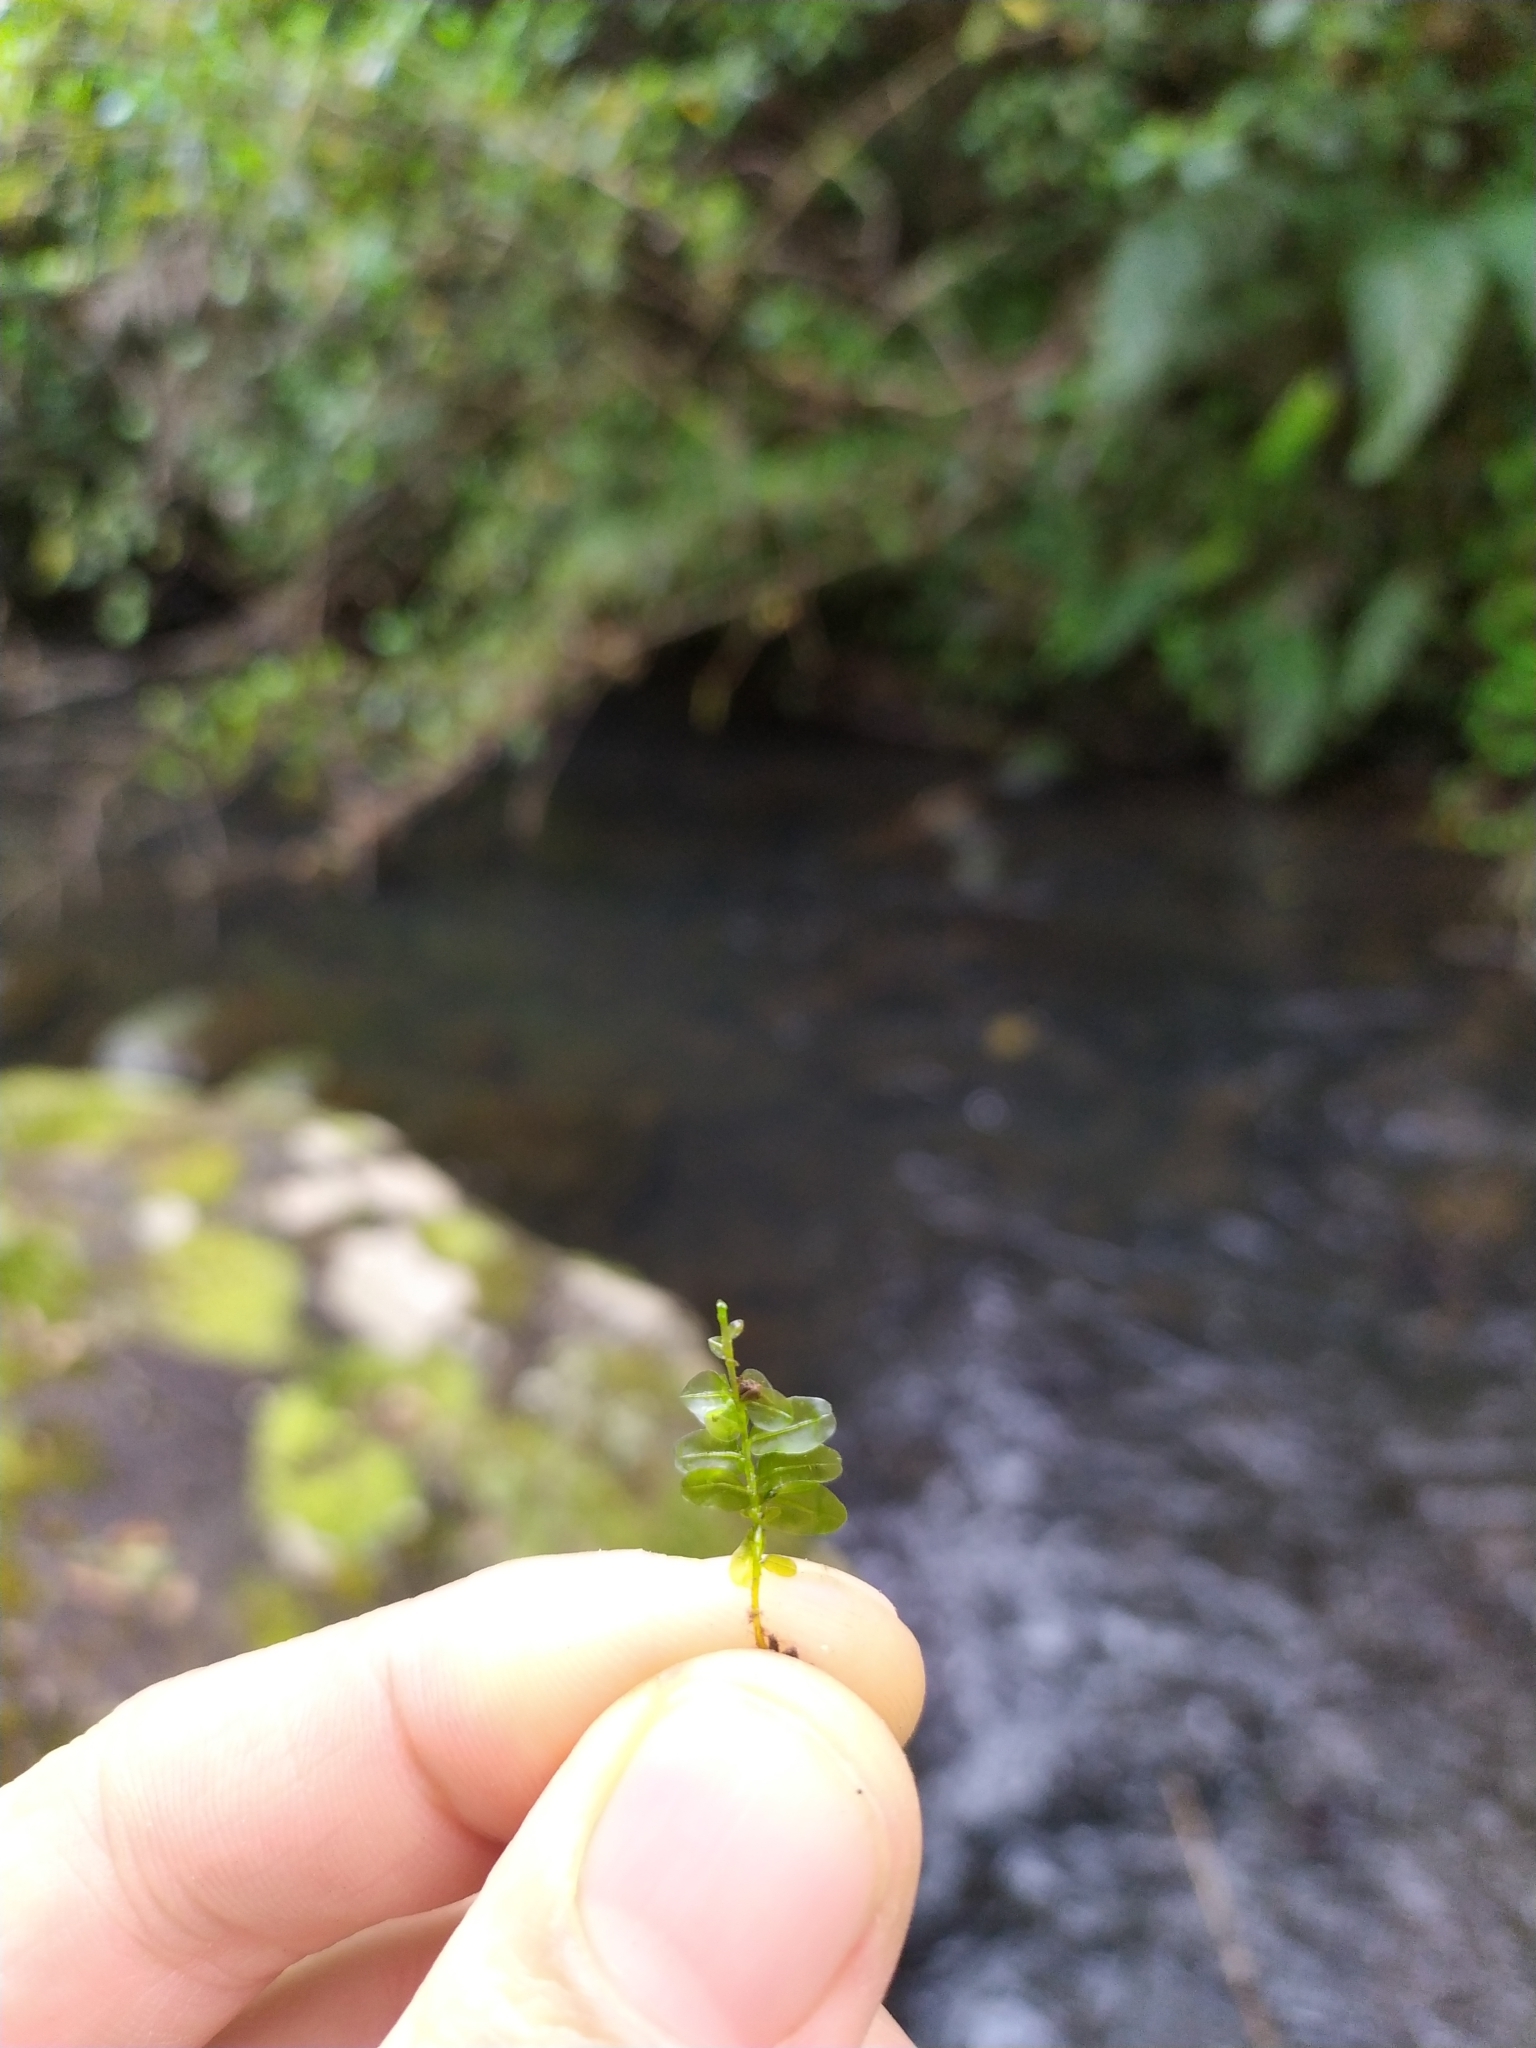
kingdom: Plantae
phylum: Bryophyta
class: Bryopsida
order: Bryales
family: Mniaceae
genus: Plagiomnium
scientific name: Plagiomnium novae-zealandiae
